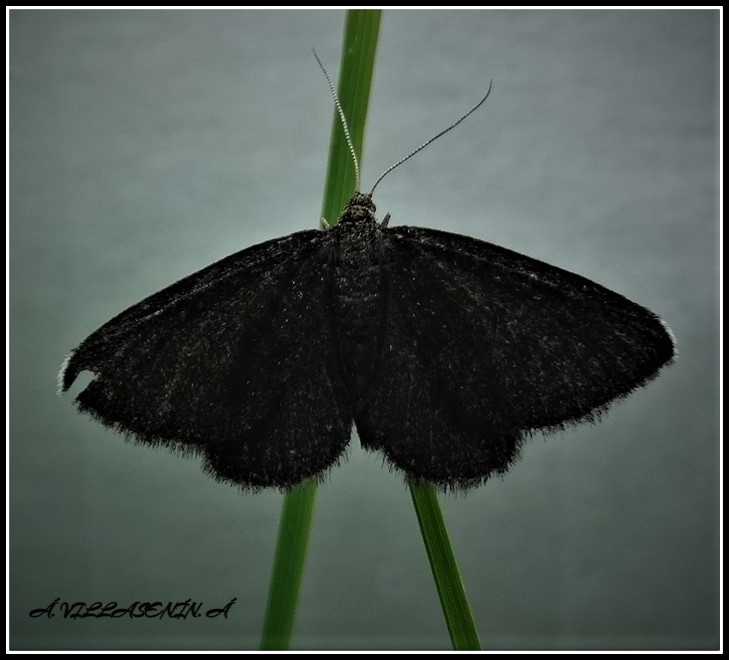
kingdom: Animalia
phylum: Arthropoda
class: Insecta
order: Lepidoptera
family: Geometridae
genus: Odezia
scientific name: Odezia atrata
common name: Chimney sweeper
